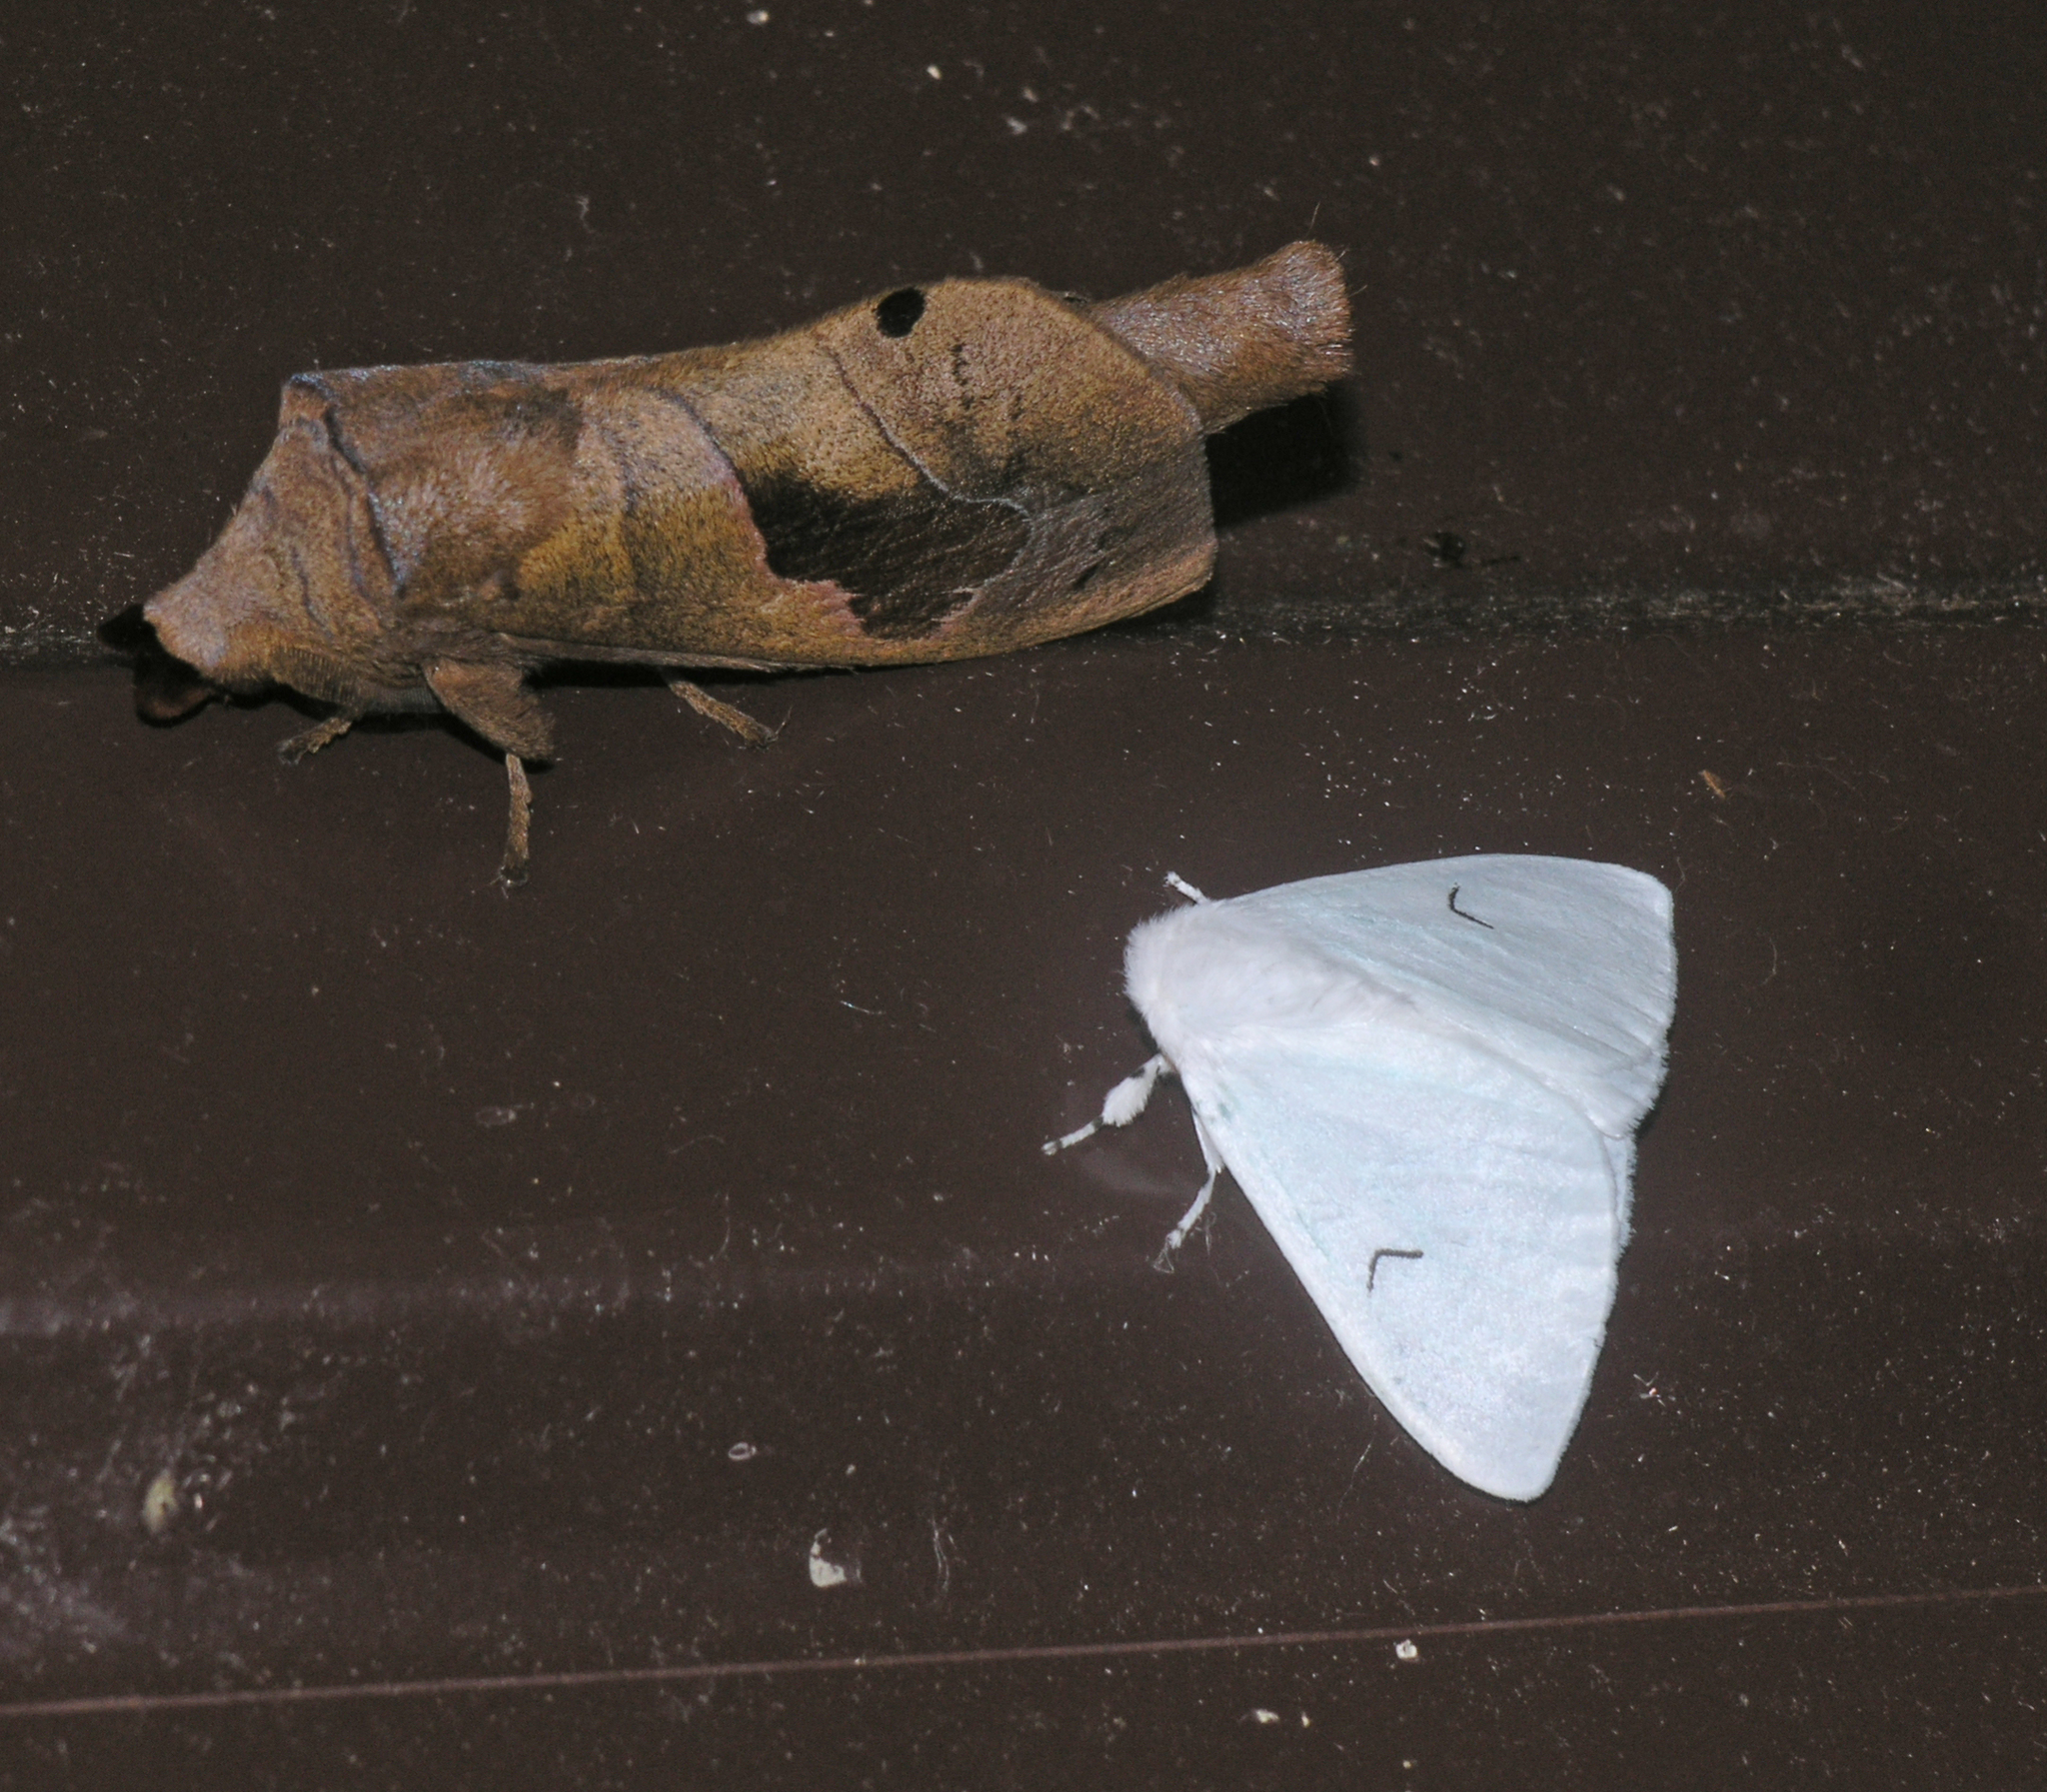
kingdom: Animalia
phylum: Arthropoda
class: Insecta
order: Lepidoptera
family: Erebidae
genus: Arctornis
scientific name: Arctornis l-nigrum
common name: Black v moth
